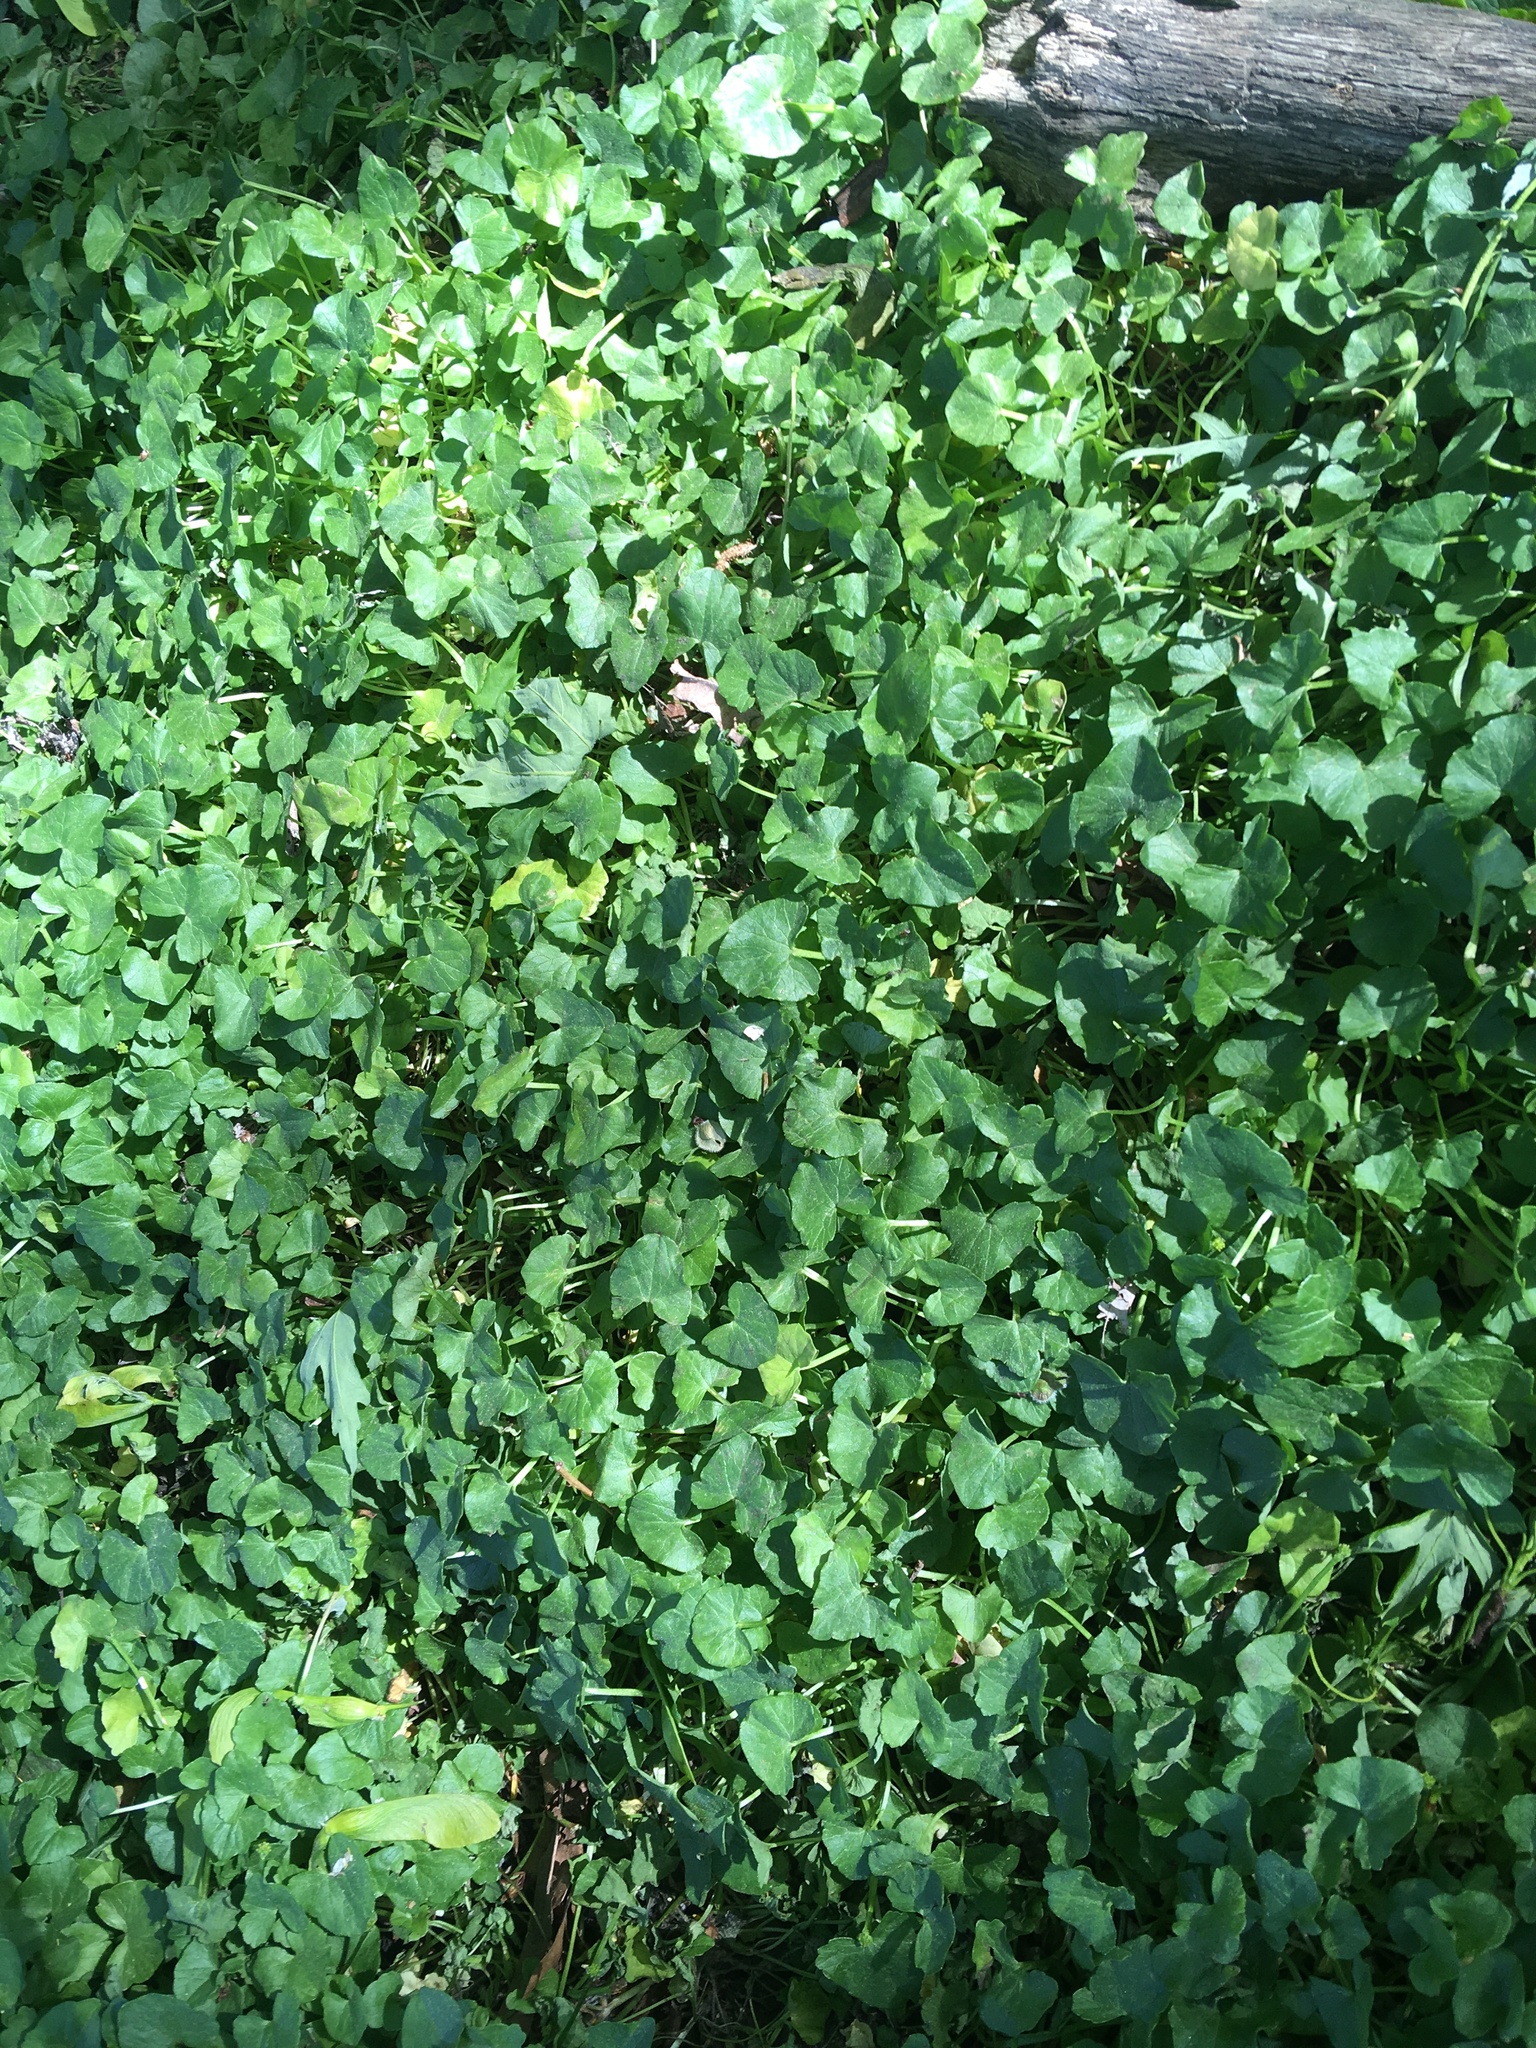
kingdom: Plantae
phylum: Tracheophyta
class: Magnoliopsida
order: Ranunculales
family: Ranunculaceae
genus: Ficaria
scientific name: Ficaria verna
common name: Lesser celandine
